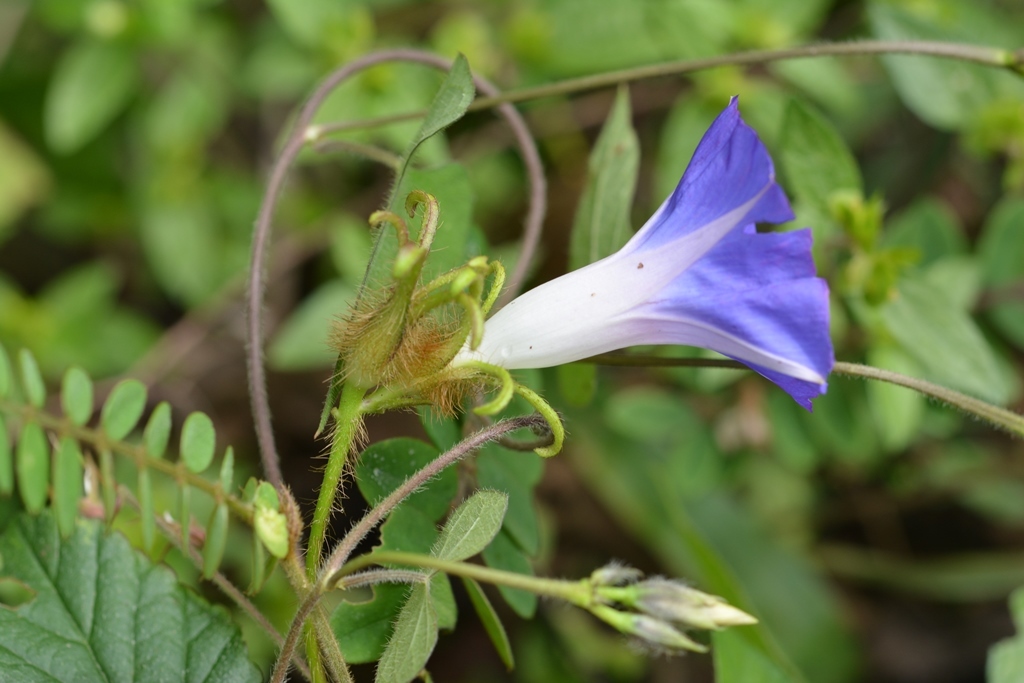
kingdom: Plantae
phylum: Tracheophyta
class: Magnoliopsida
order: Solanales
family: Convolvulaceae
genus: Ipomoea
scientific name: Ipomoea hederacea
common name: Ivy-leaved morning-glory
